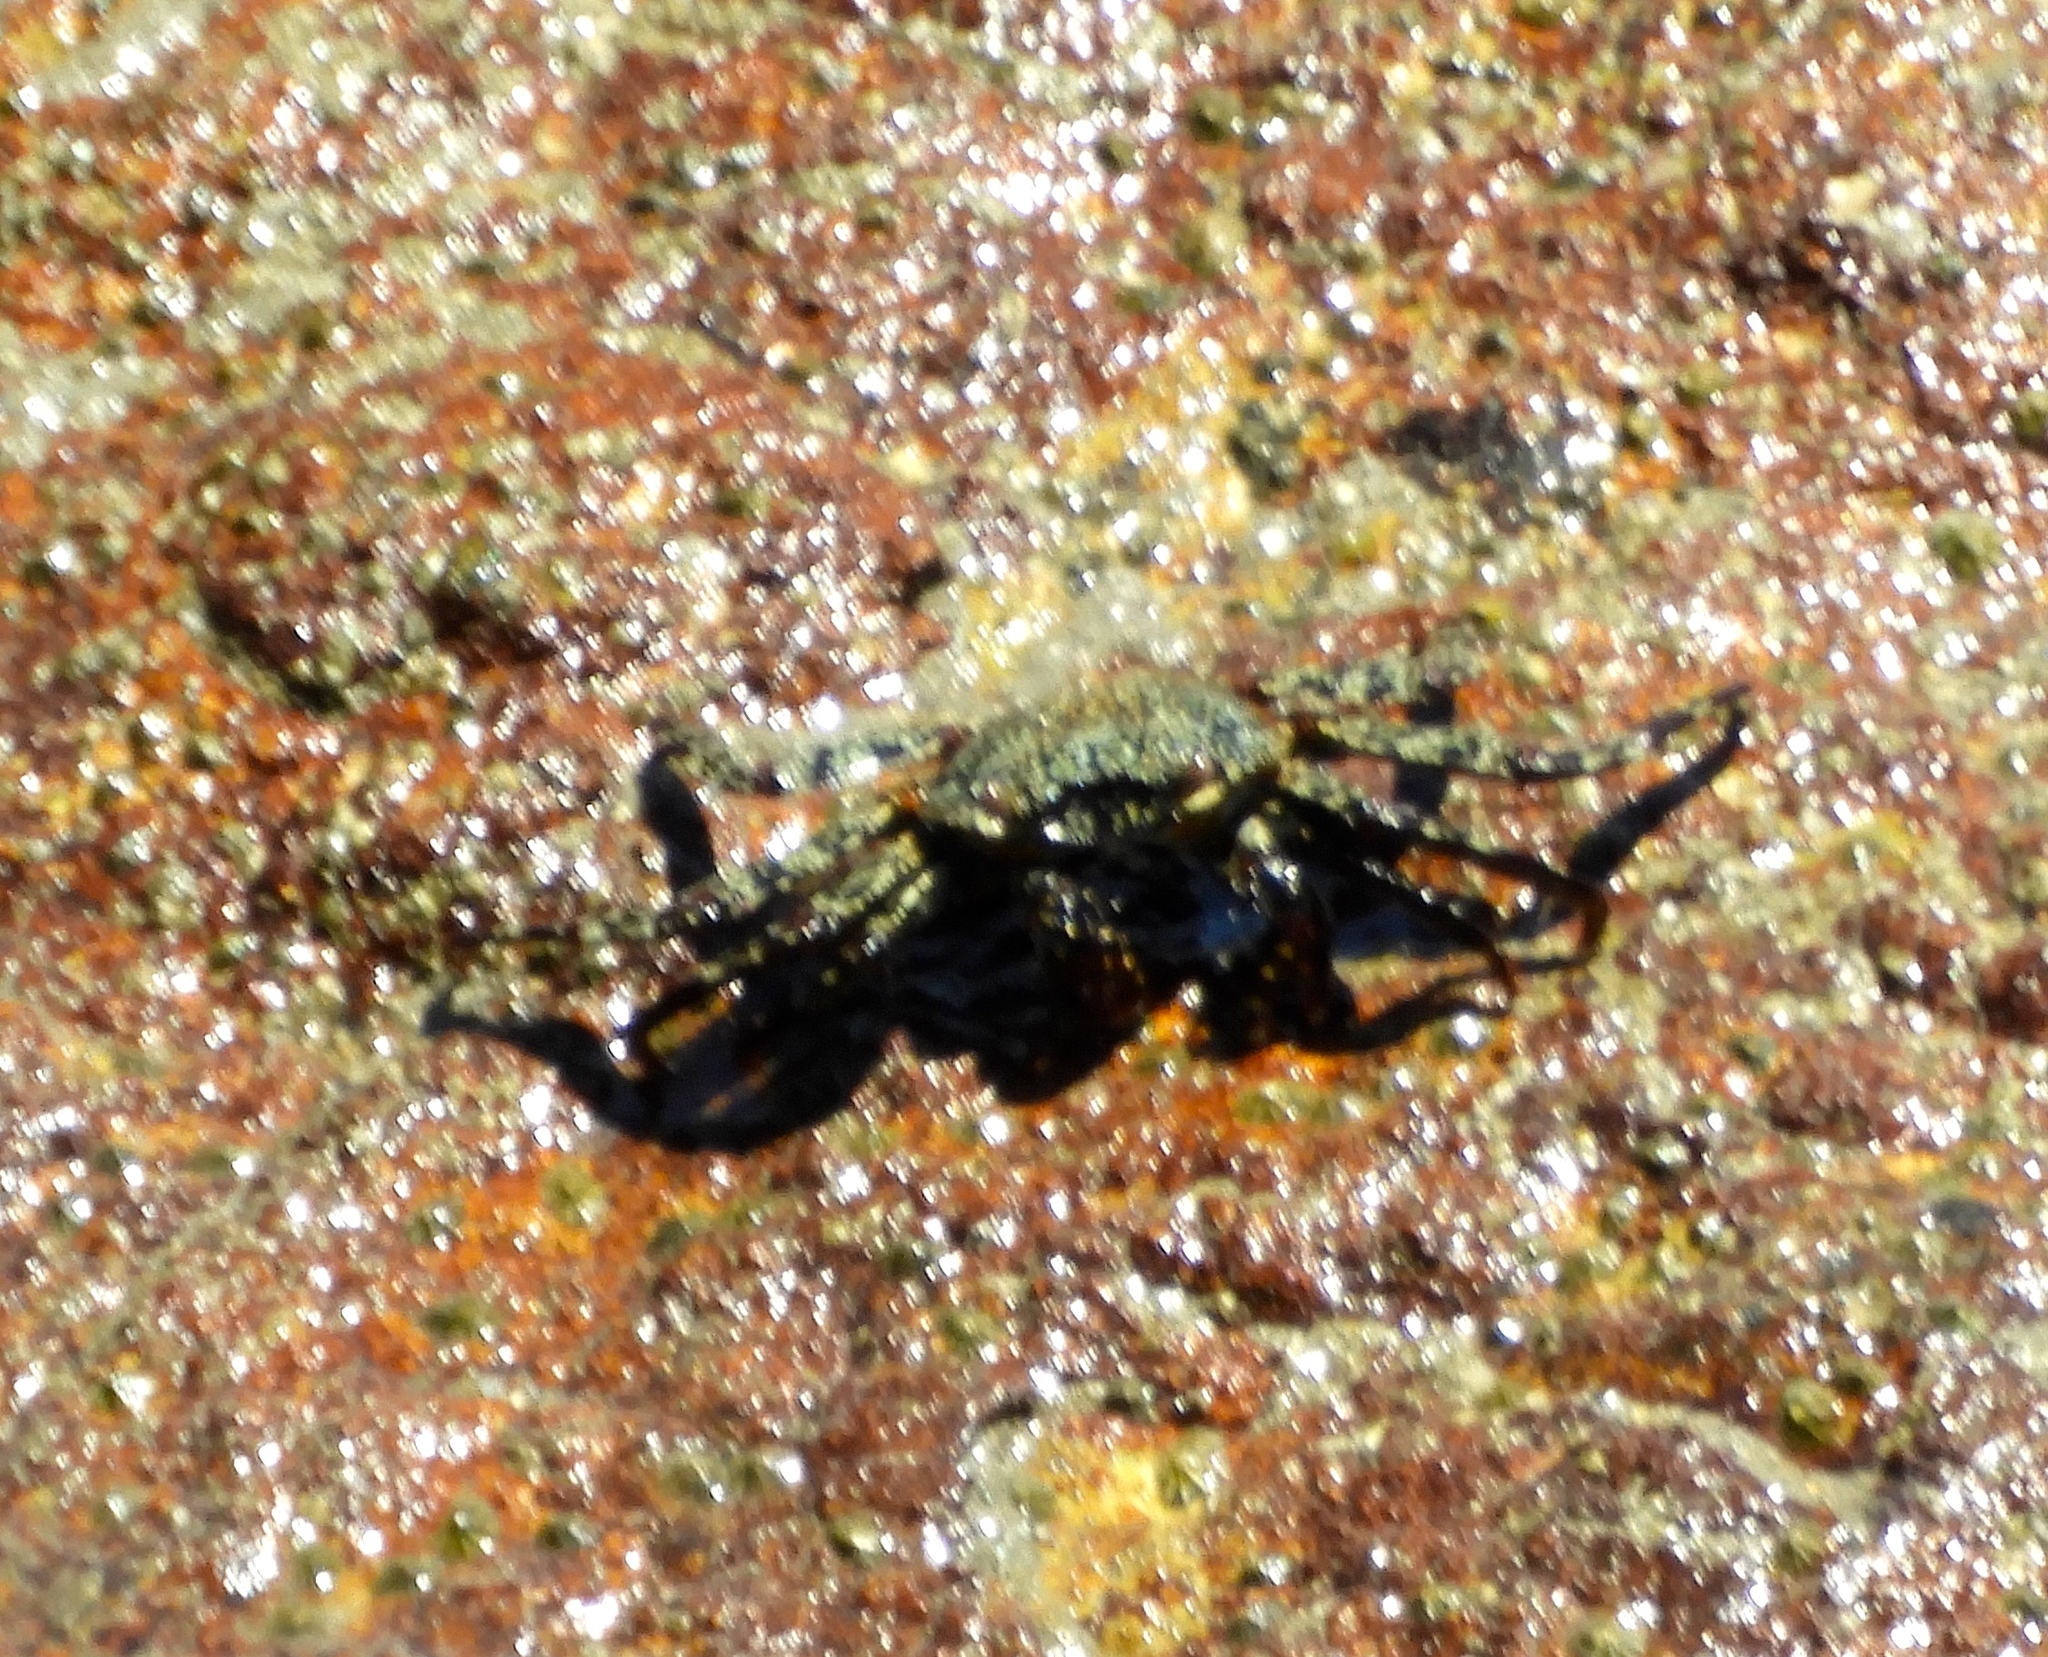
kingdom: Animalia
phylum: Arthropoda
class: Malacostraca
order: Decapoda
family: Grapsidae
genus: Grapsus
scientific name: Grapsus grapsus
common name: Sally lightfoot
